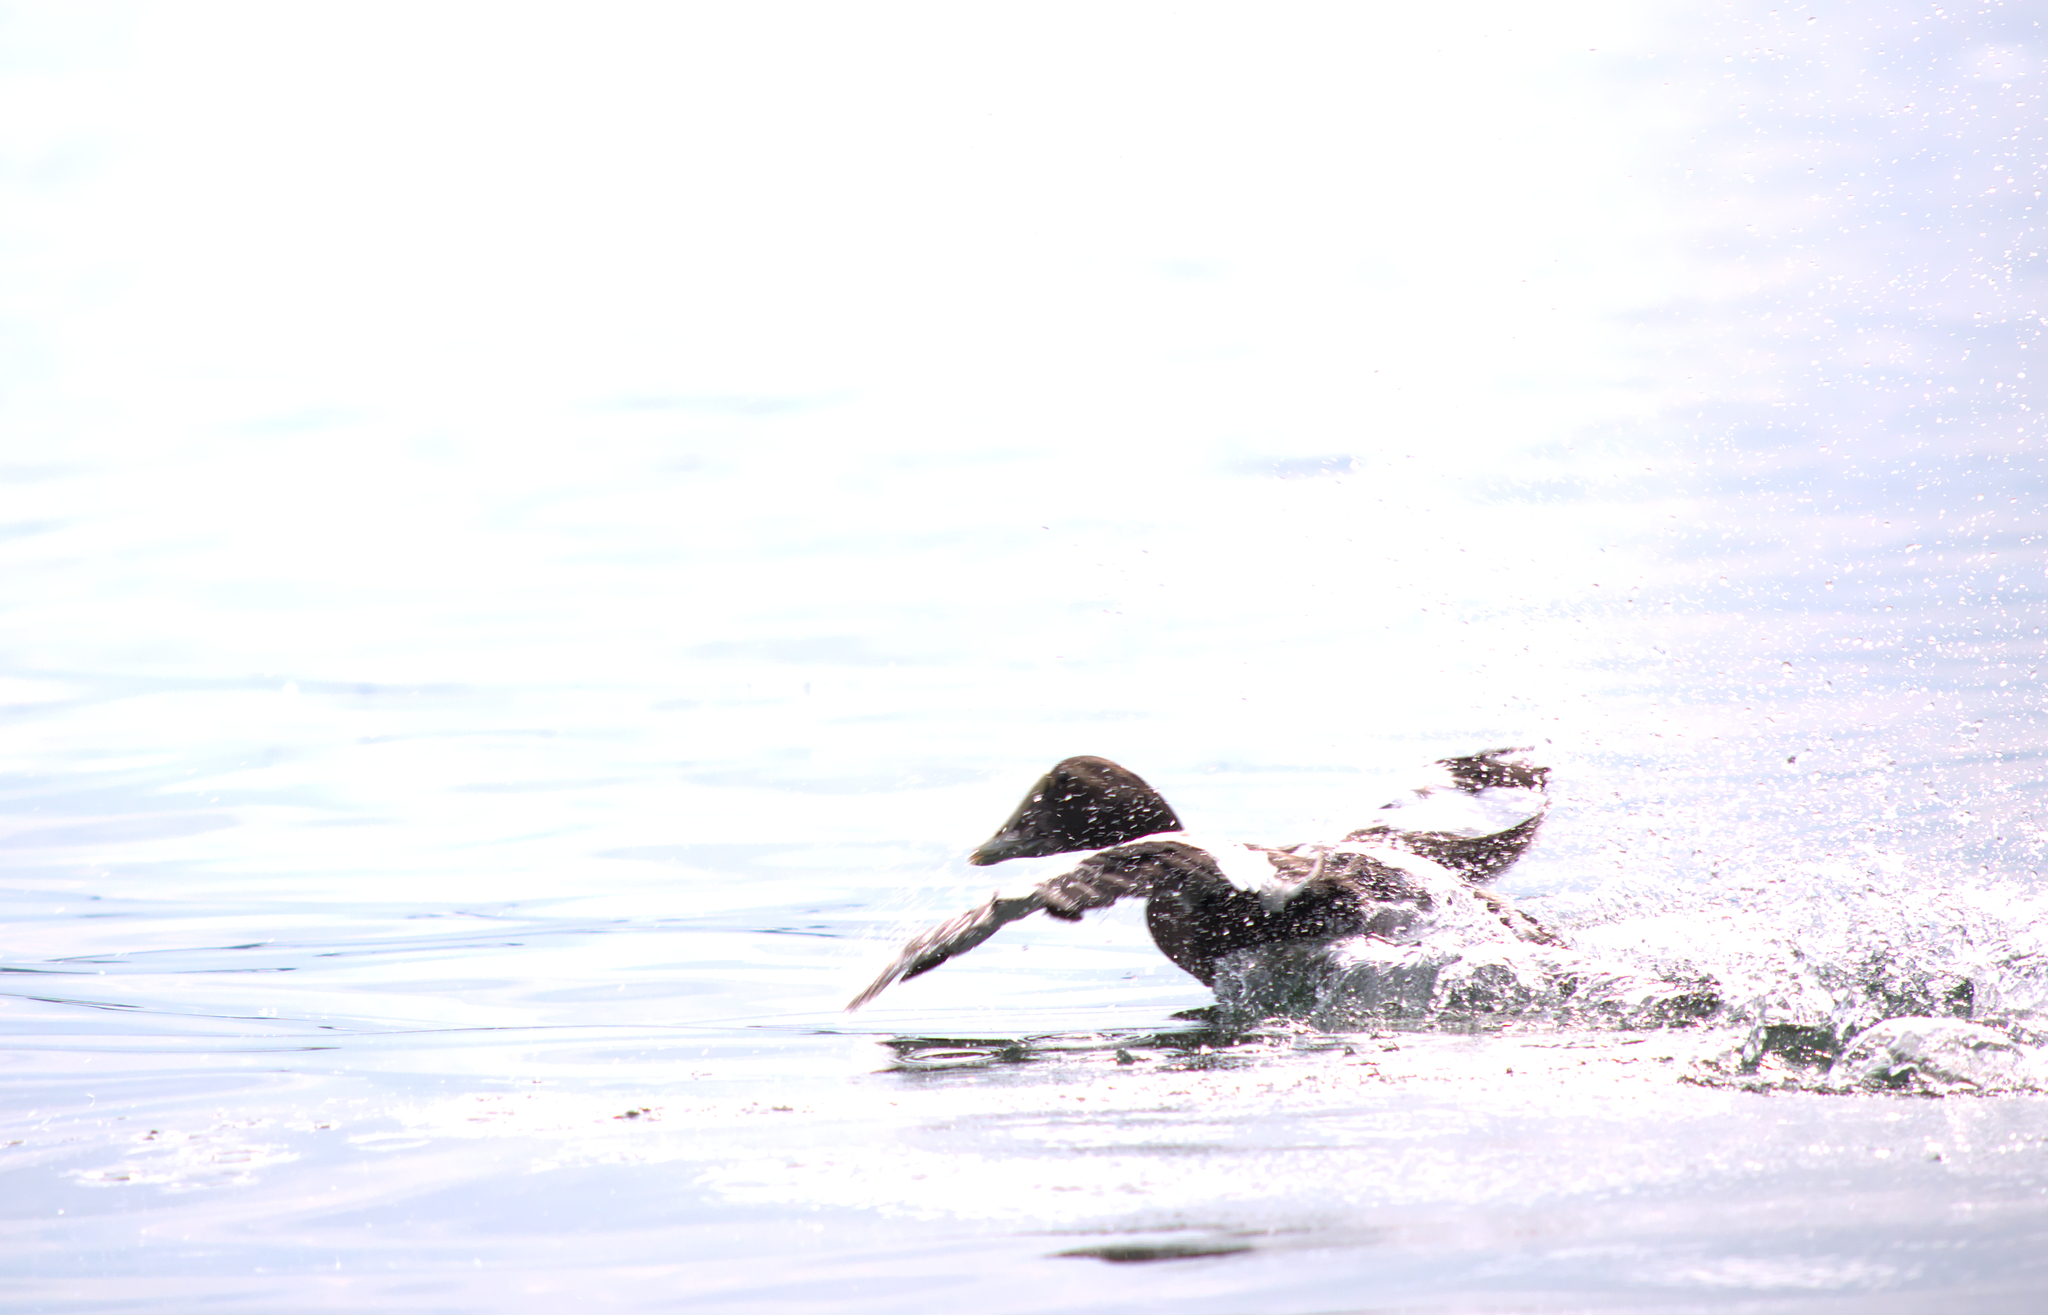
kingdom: Animalia
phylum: Chordata
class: Aves
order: Anseriformes
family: Anatidae
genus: Somateria
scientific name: Somateria mollissima
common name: Common eider
